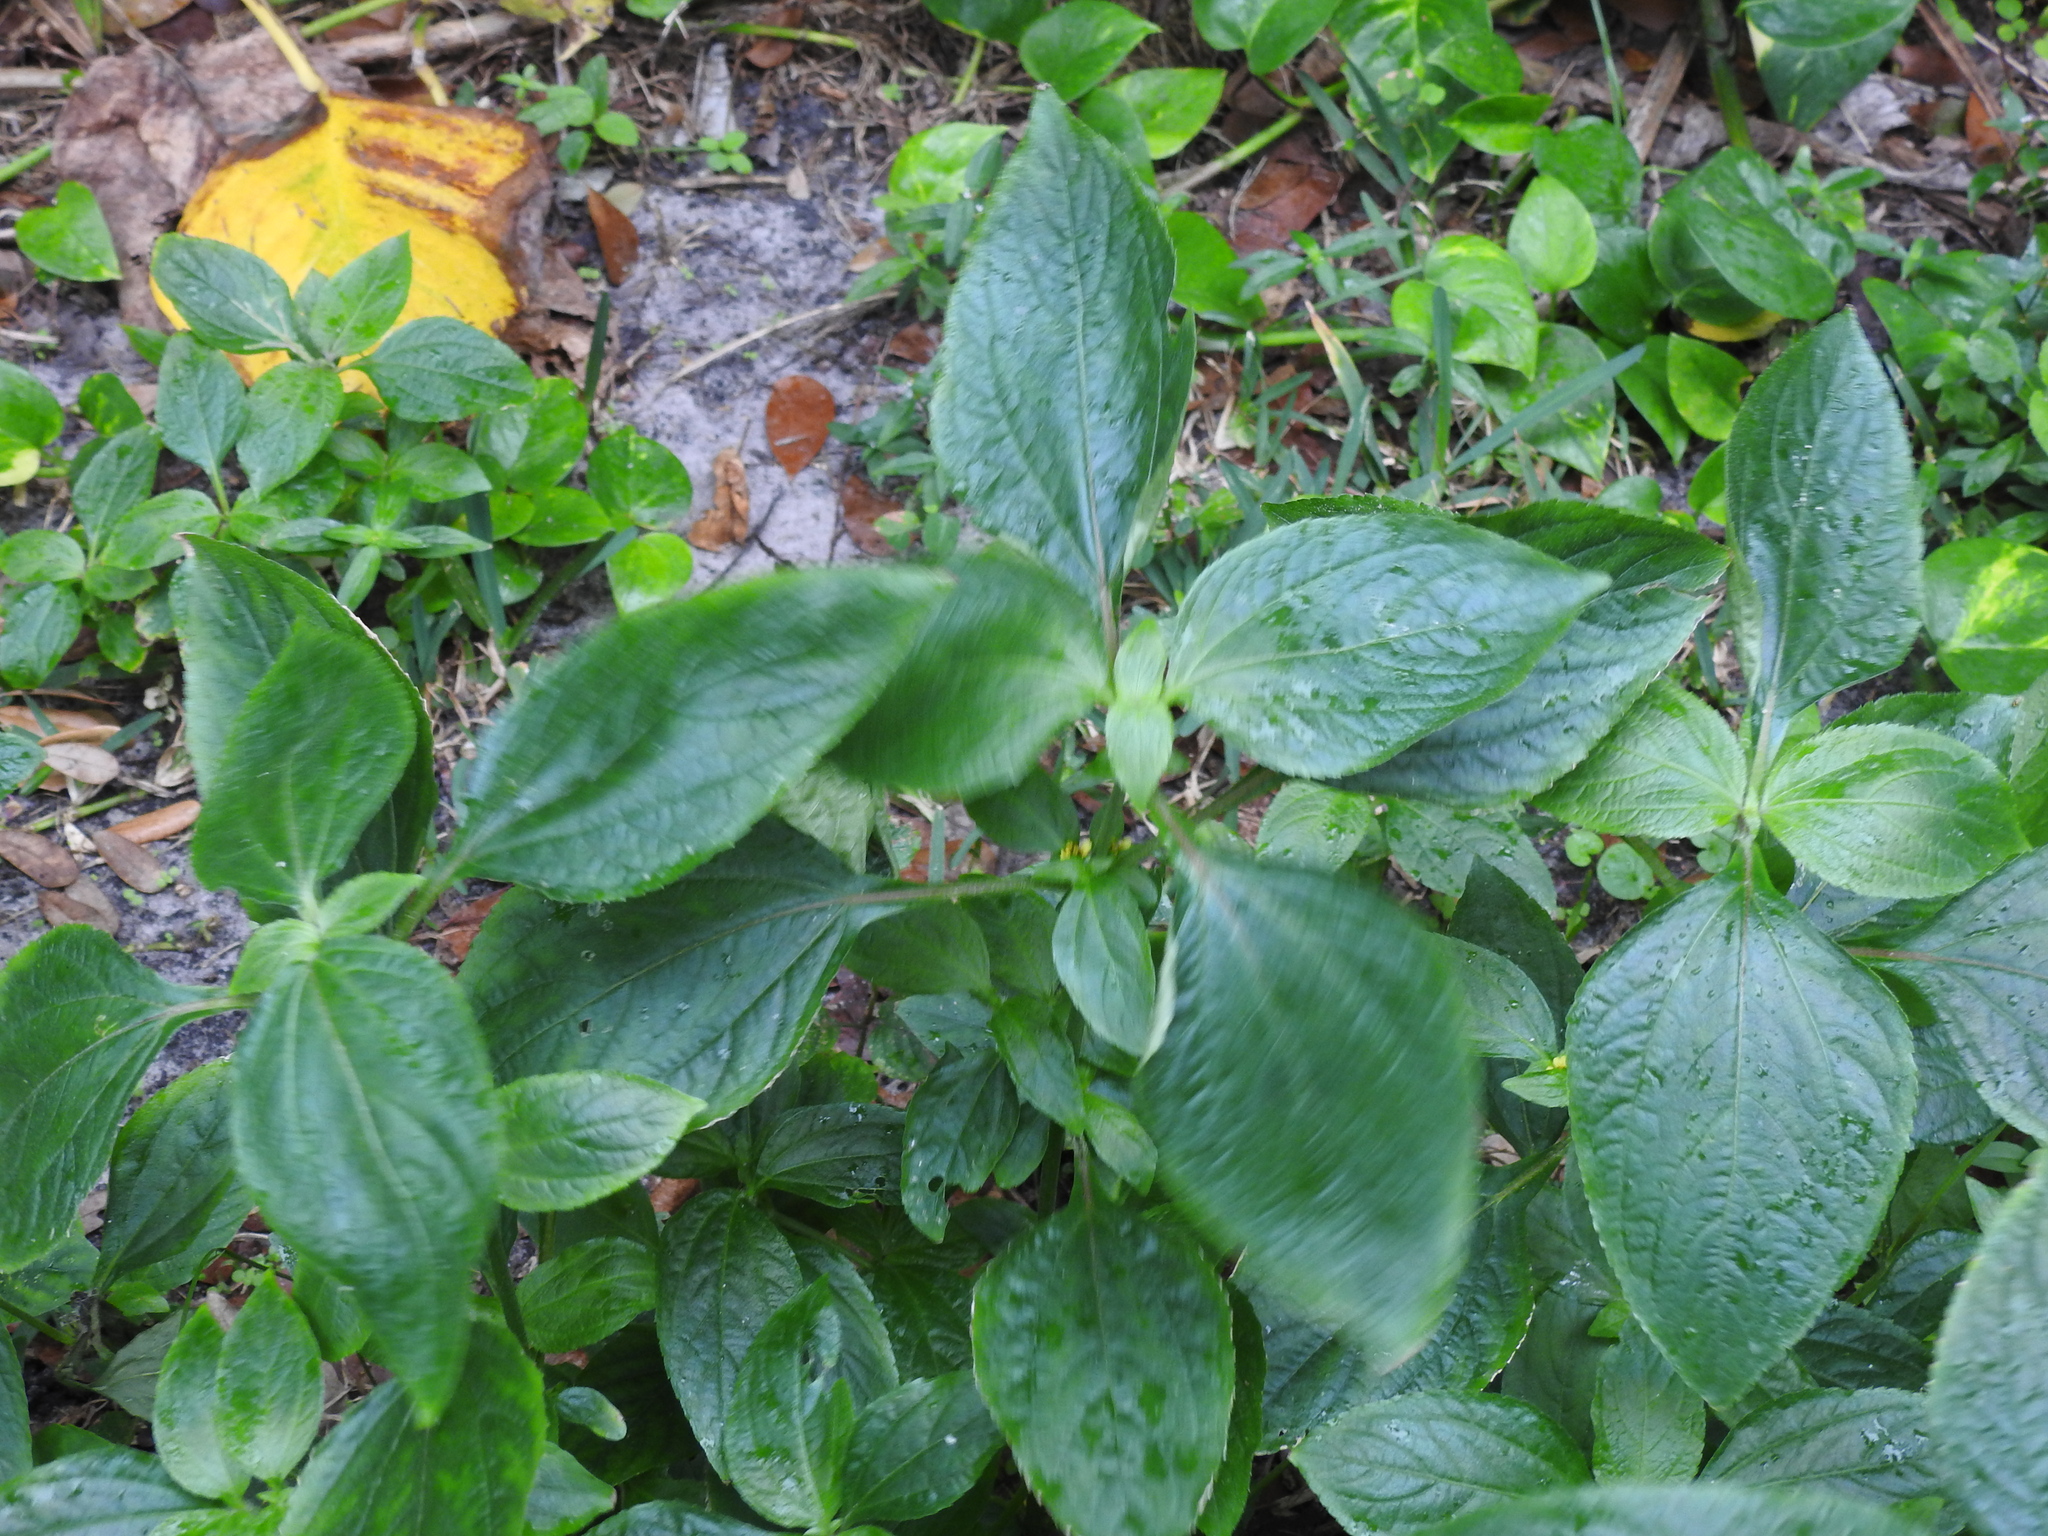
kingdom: Plantae
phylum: Tracheophyta
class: Magnoliopsida
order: Asterales
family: Asteraceae
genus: Synedrella
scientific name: Synedrella nodiflora
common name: Nodeweed
